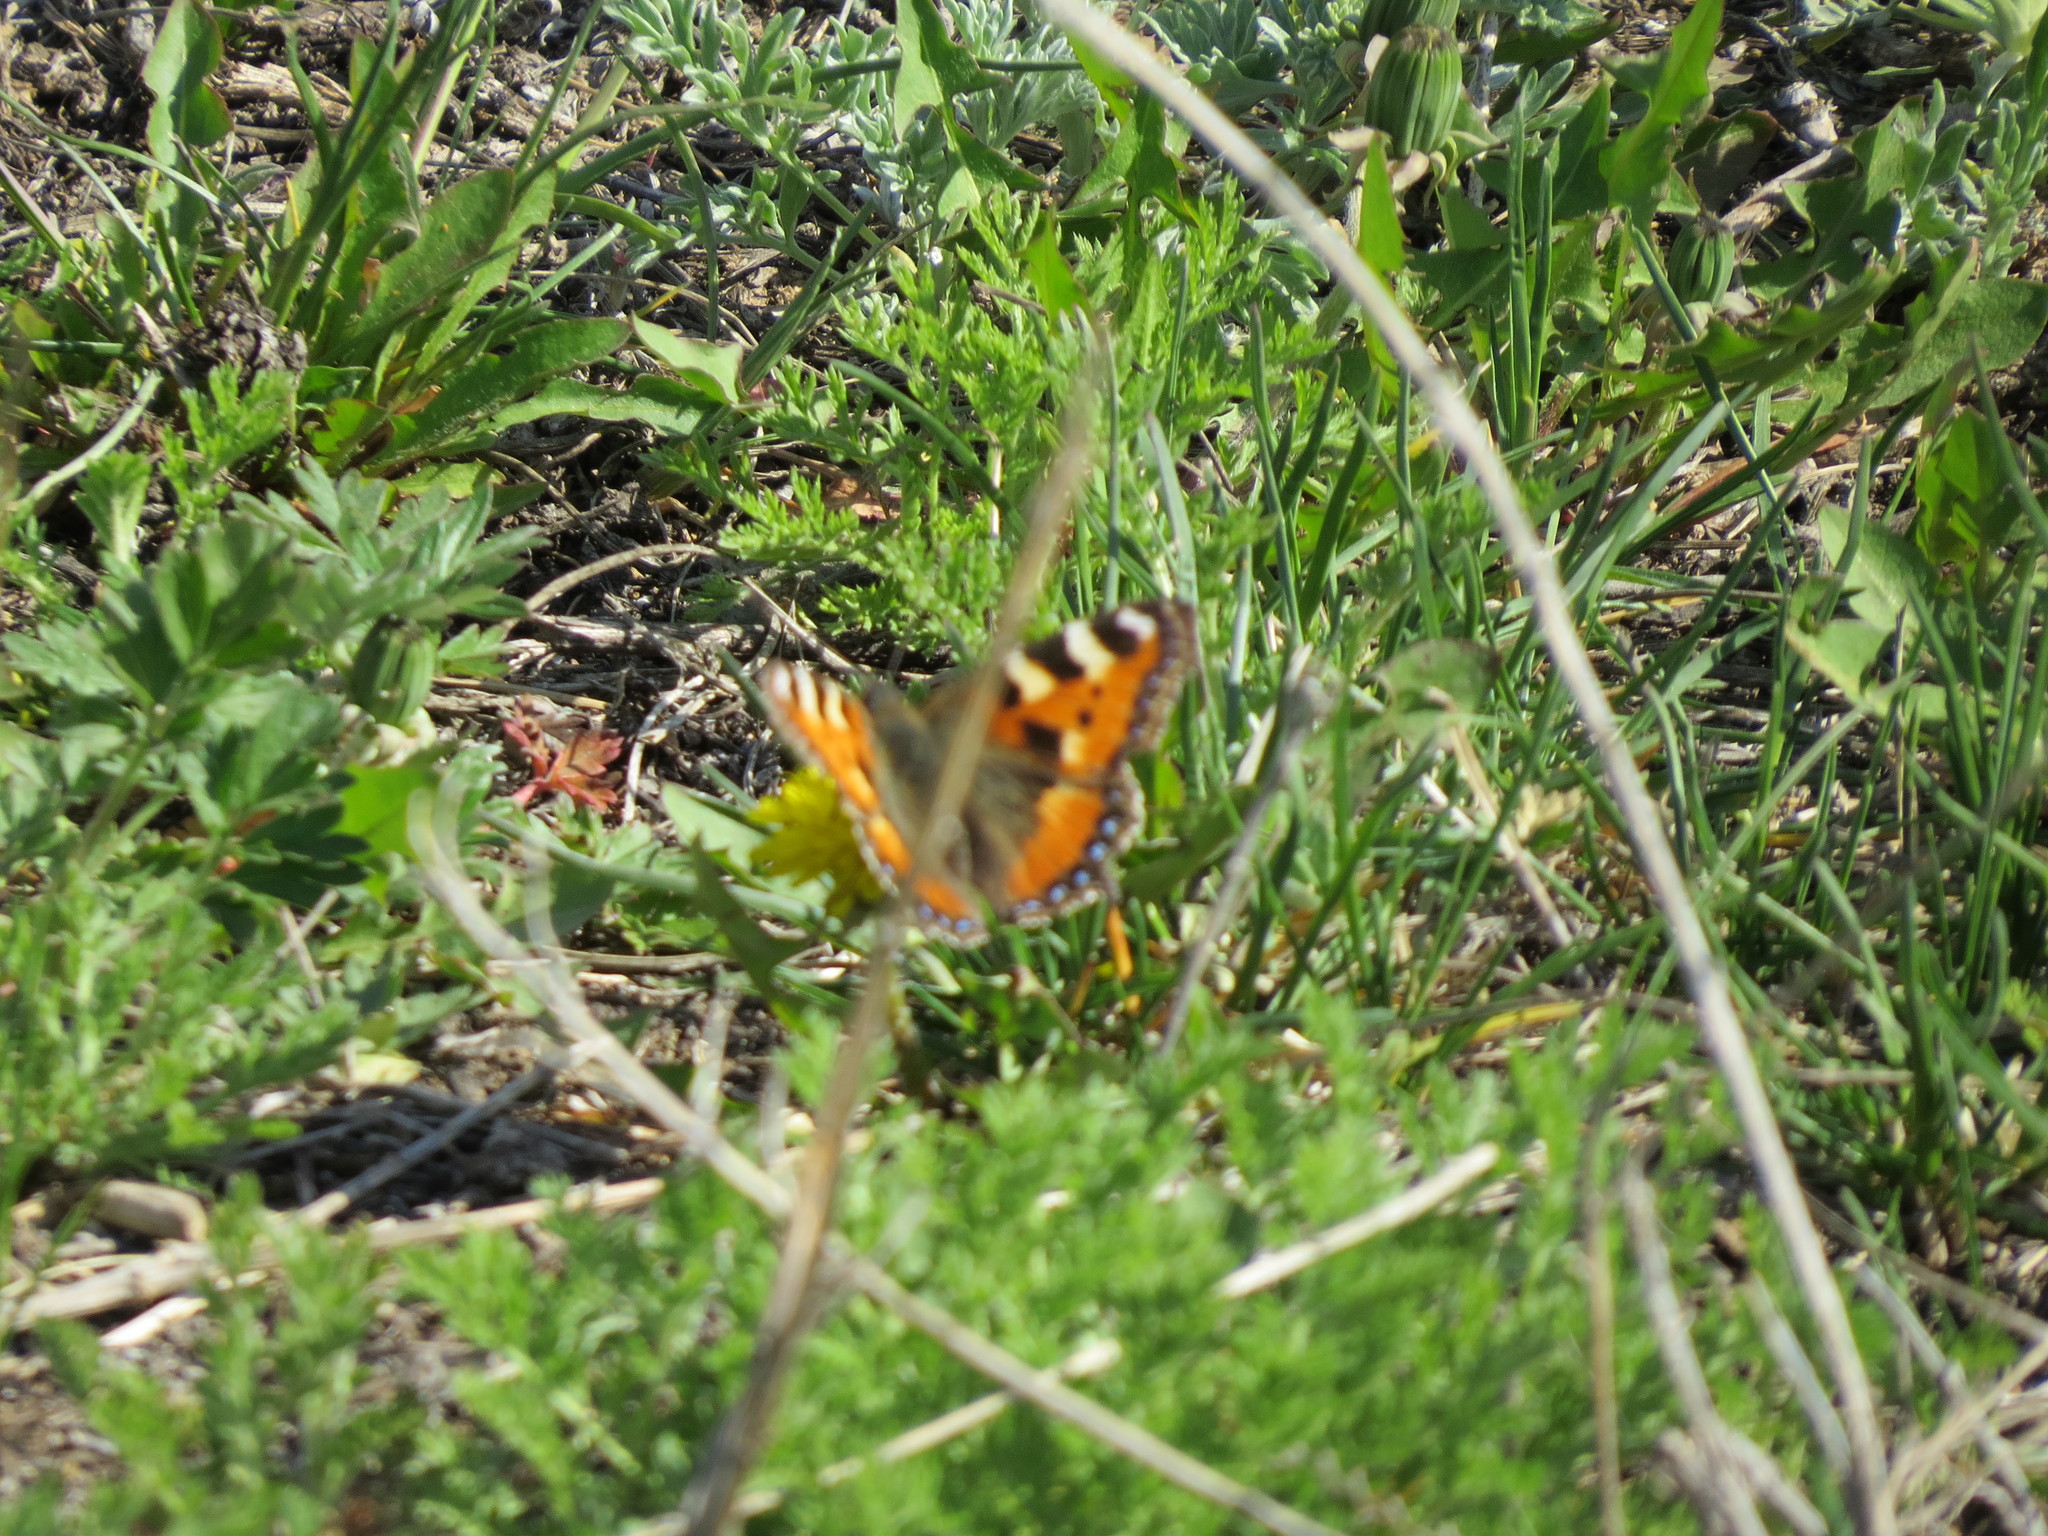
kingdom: Animalia
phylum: Arthropoda
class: Insecta
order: Lepidoptera
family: Nymphalidae
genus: Aglais
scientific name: Aglais urticae
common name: Small tortoiseshell
